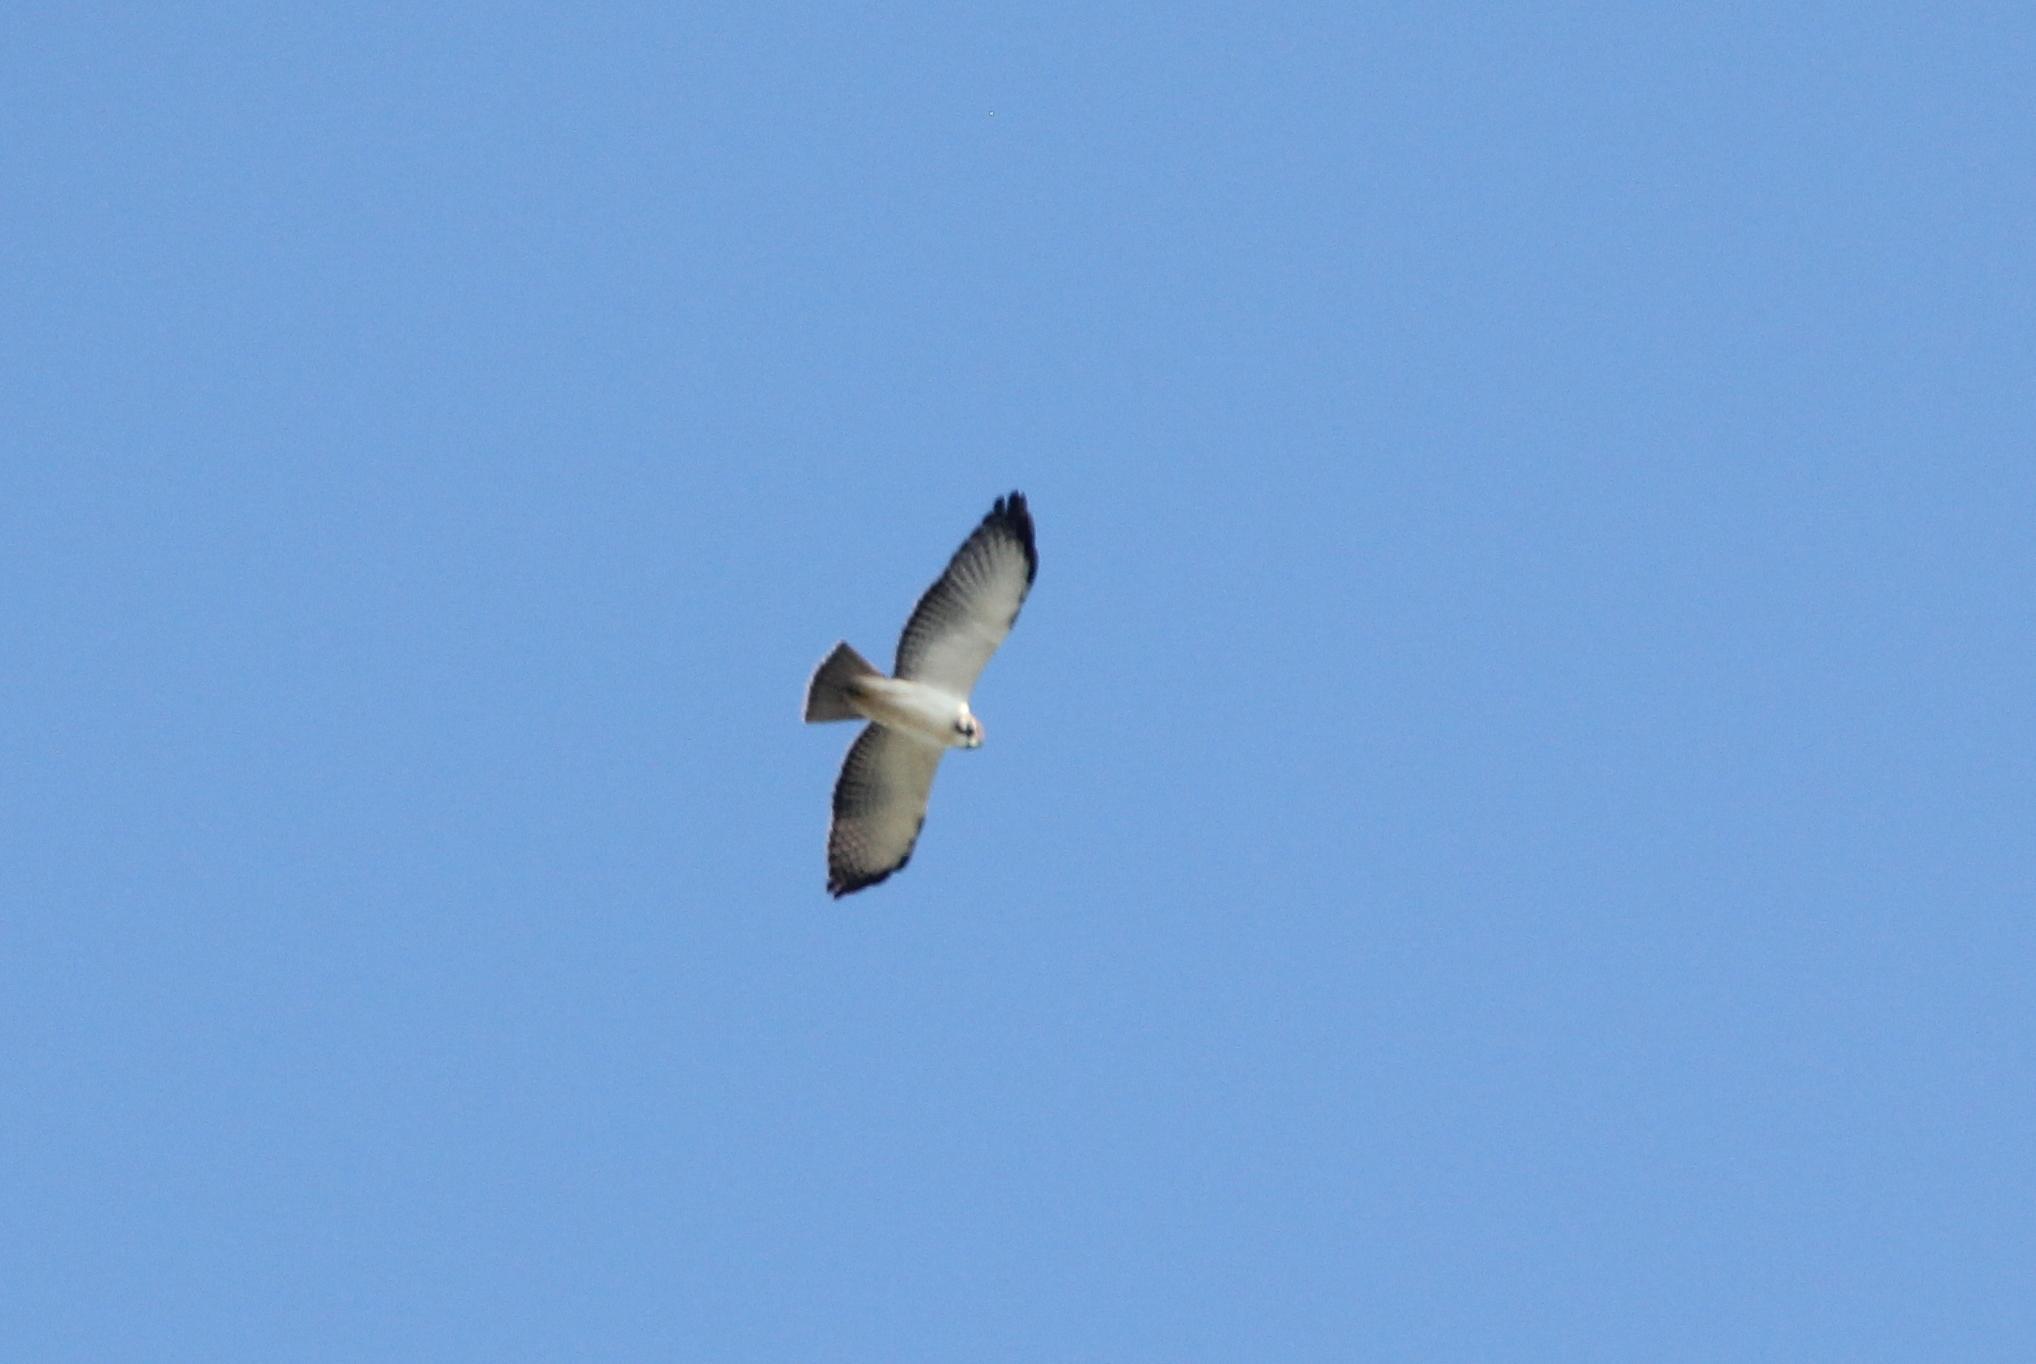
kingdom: Animalia
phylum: Chordata
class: Aves
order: Accipitriformes
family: Accipitridae
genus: Buteo
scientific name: Buteo brachyurus
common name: Short-tailed hawk
